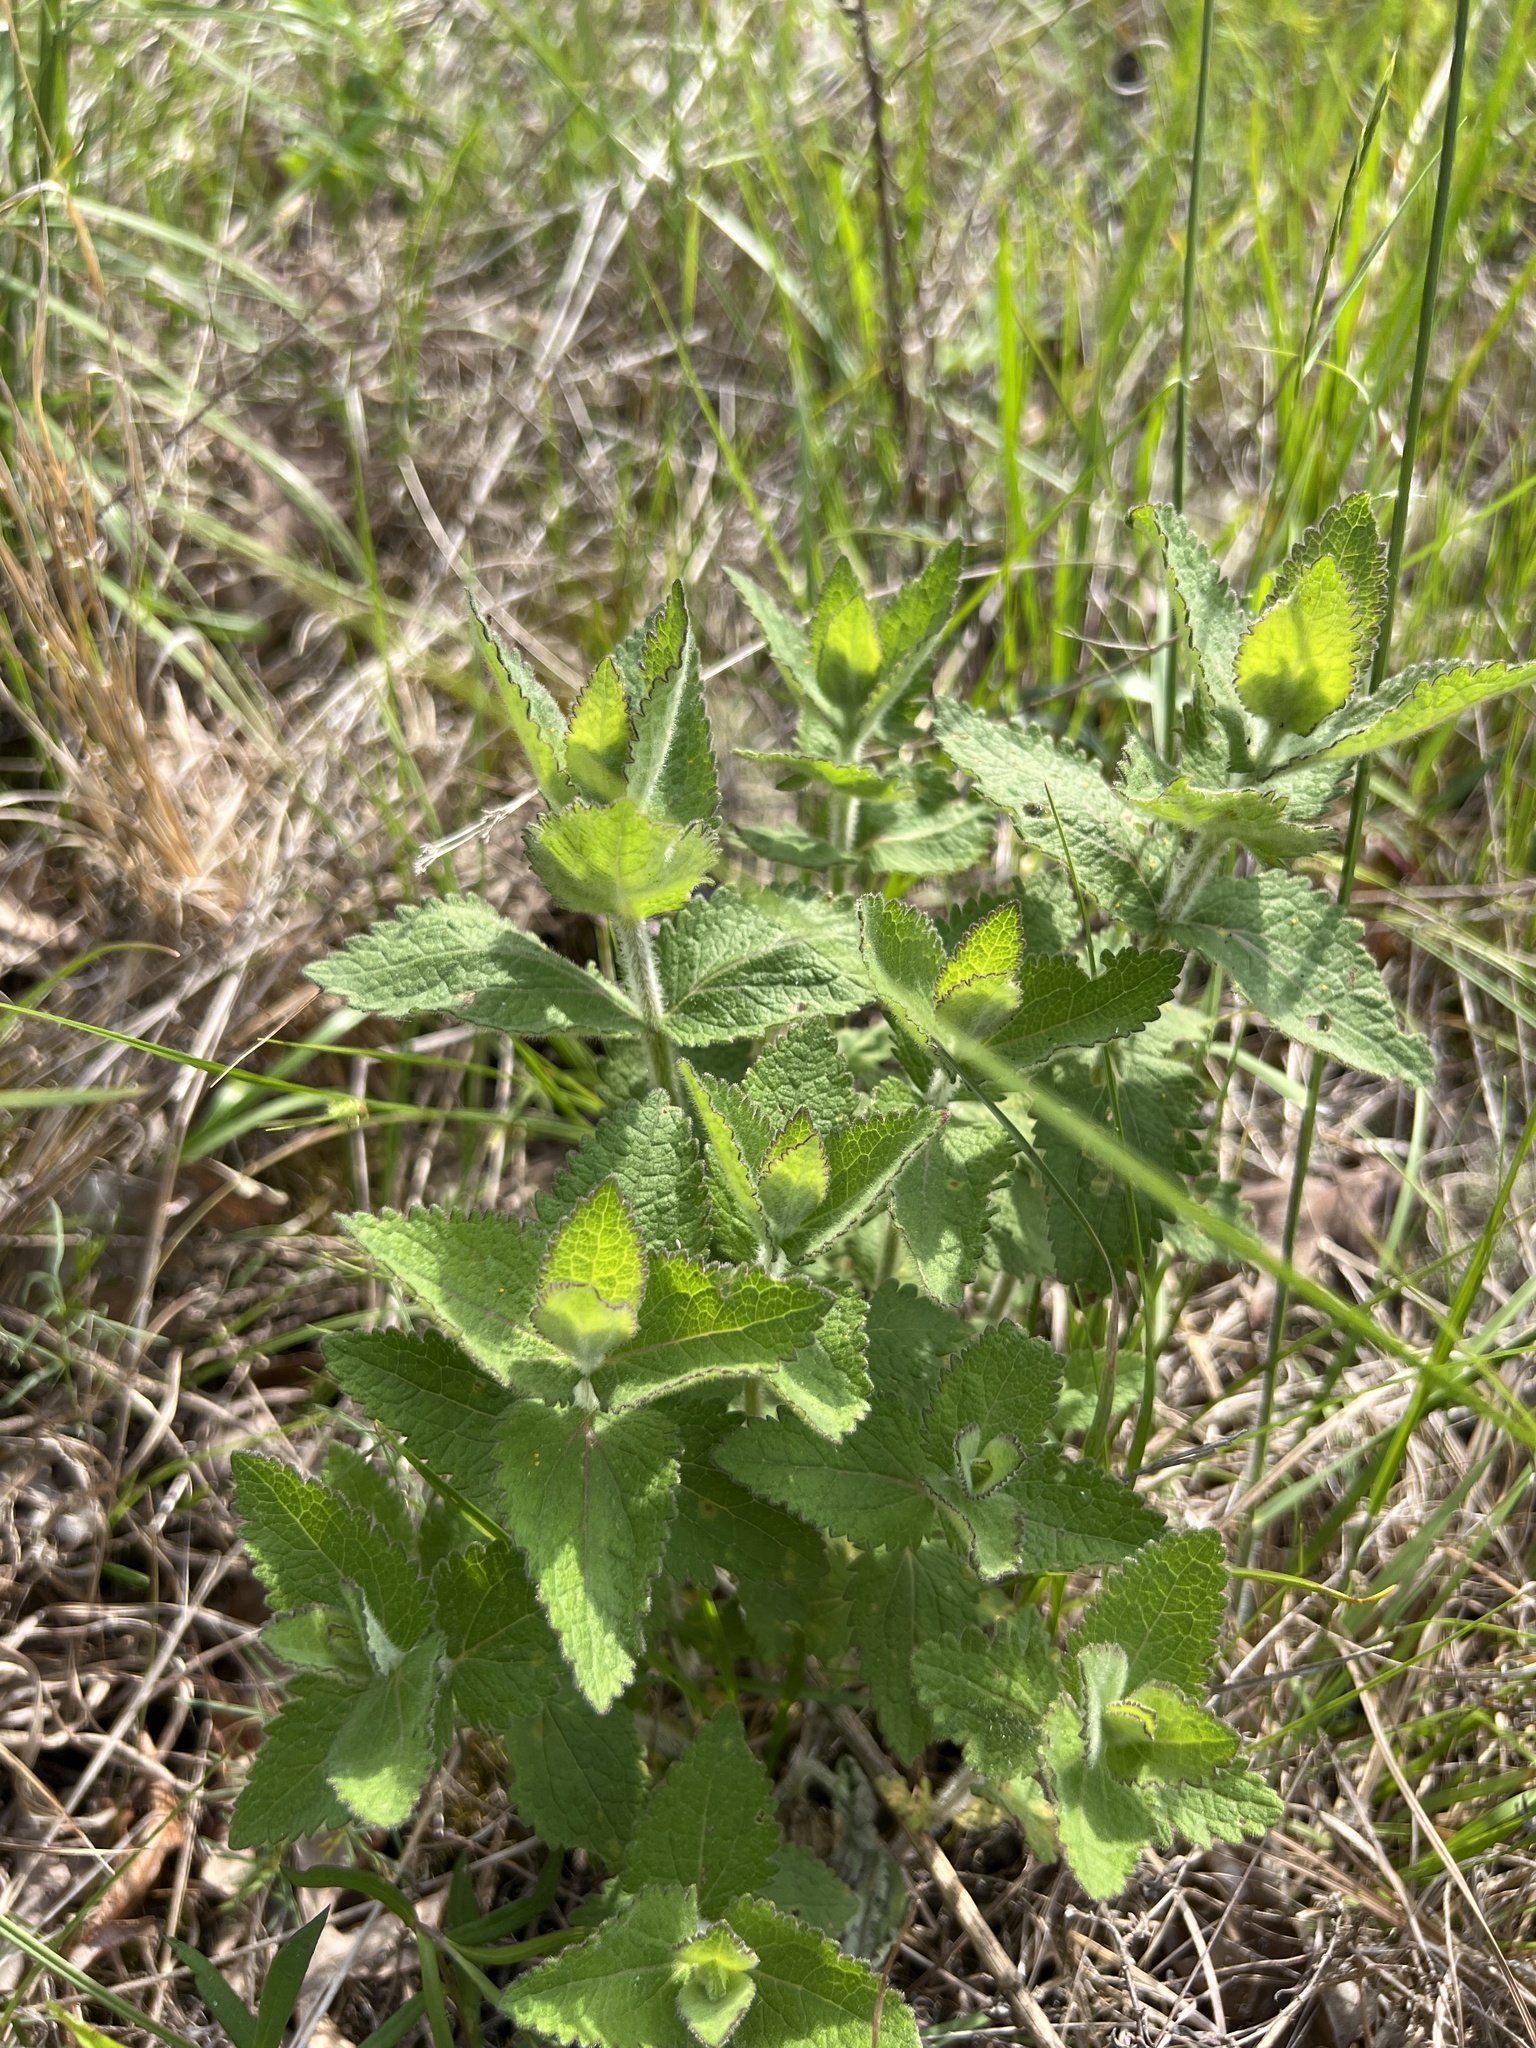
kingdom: Plantae
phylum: Tracheophyta
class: Magnoliopsida
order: Asterales
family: Asteraceae
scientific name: Asteraceae
